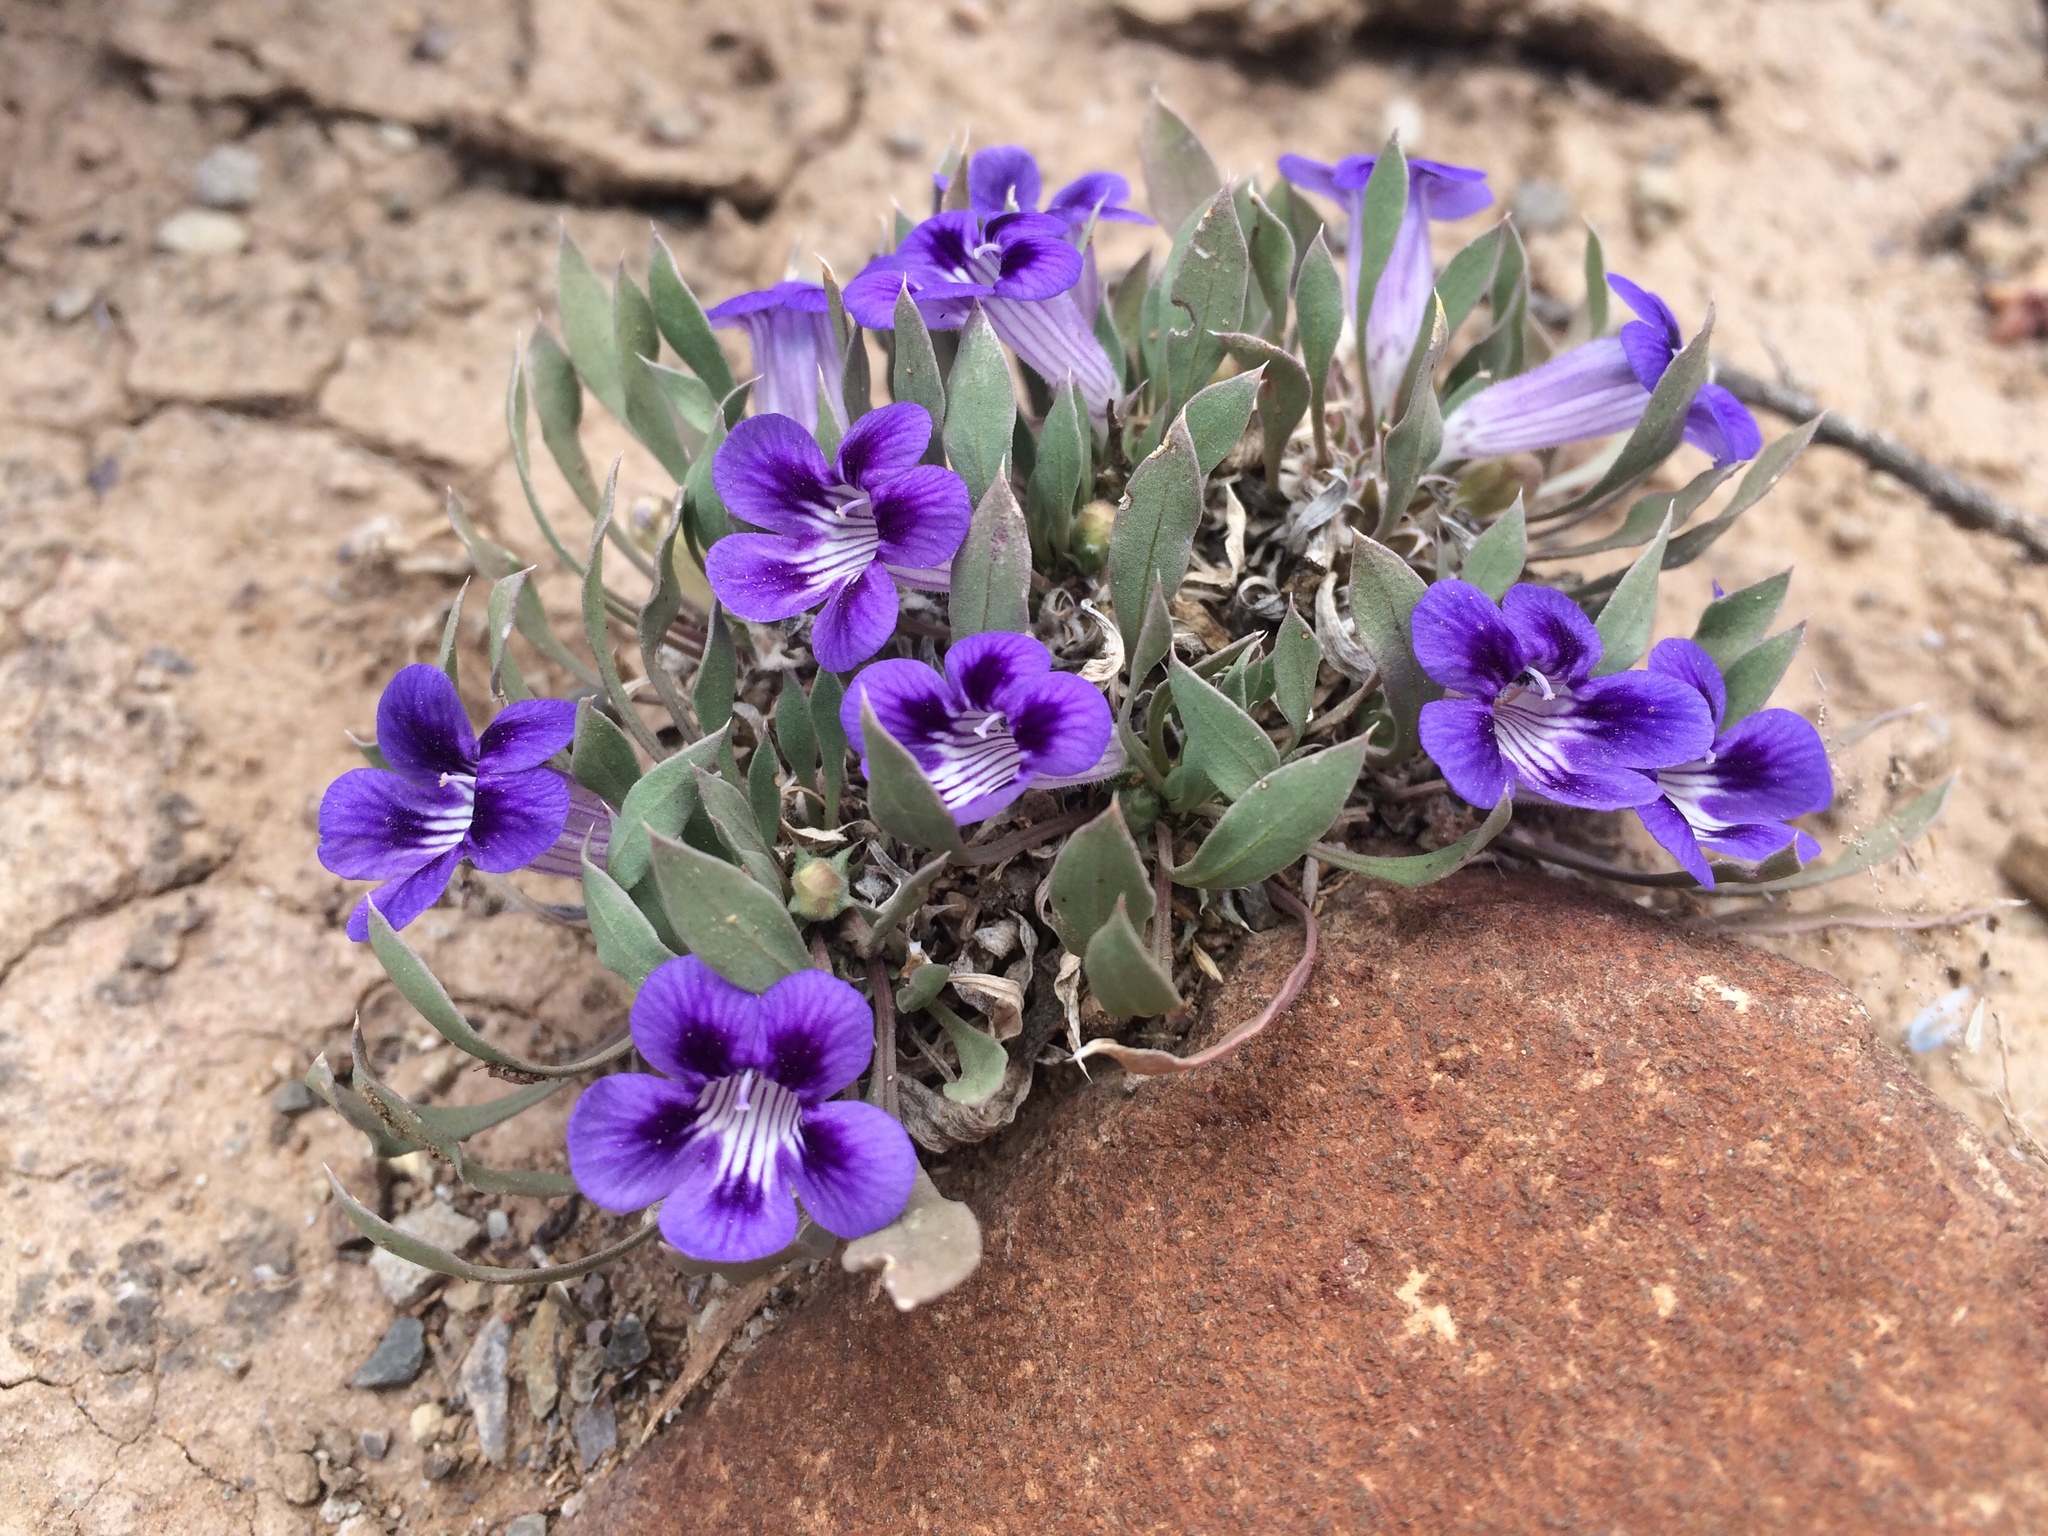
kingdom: Plantae
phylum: Tracheophyta
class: Magnoliopsida
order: Lamiales
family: Scrophulariaceae
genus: Aptosimum
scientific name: Aptosimum indivisum
